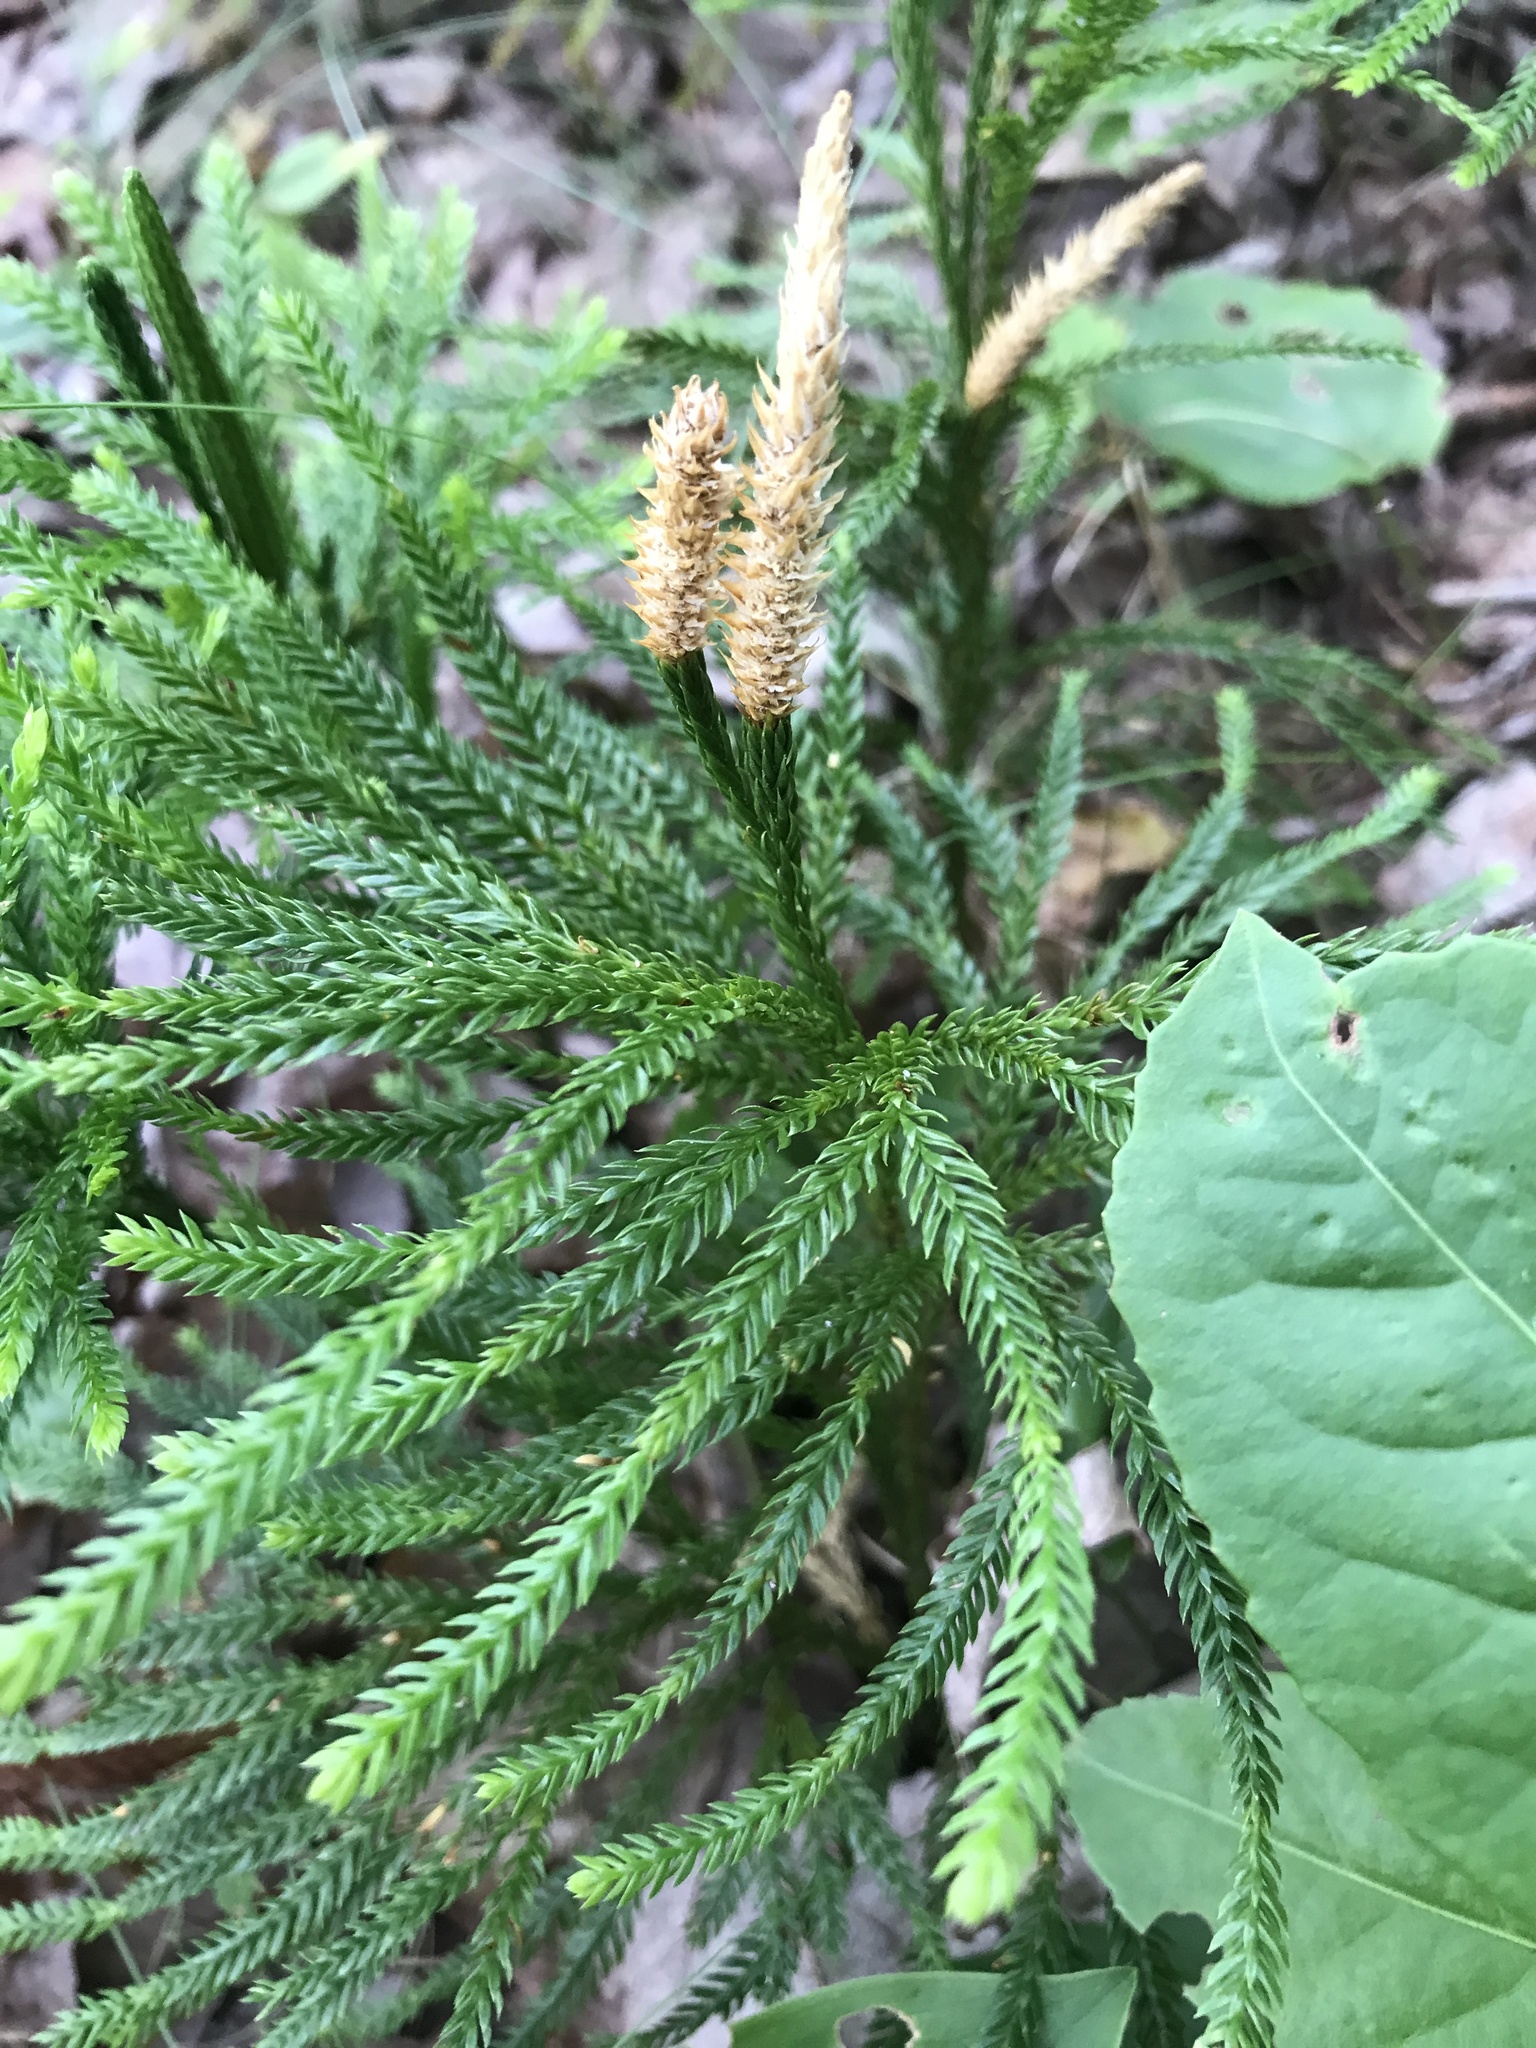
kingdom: Plantae
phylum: Tracheophyta
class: Lycopodiopsida
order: Lycopodiales
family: Lycopodiaceae
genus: Dendrolycopodium
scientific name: Dendrolycopodium obscurum
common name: Common ground-pine
